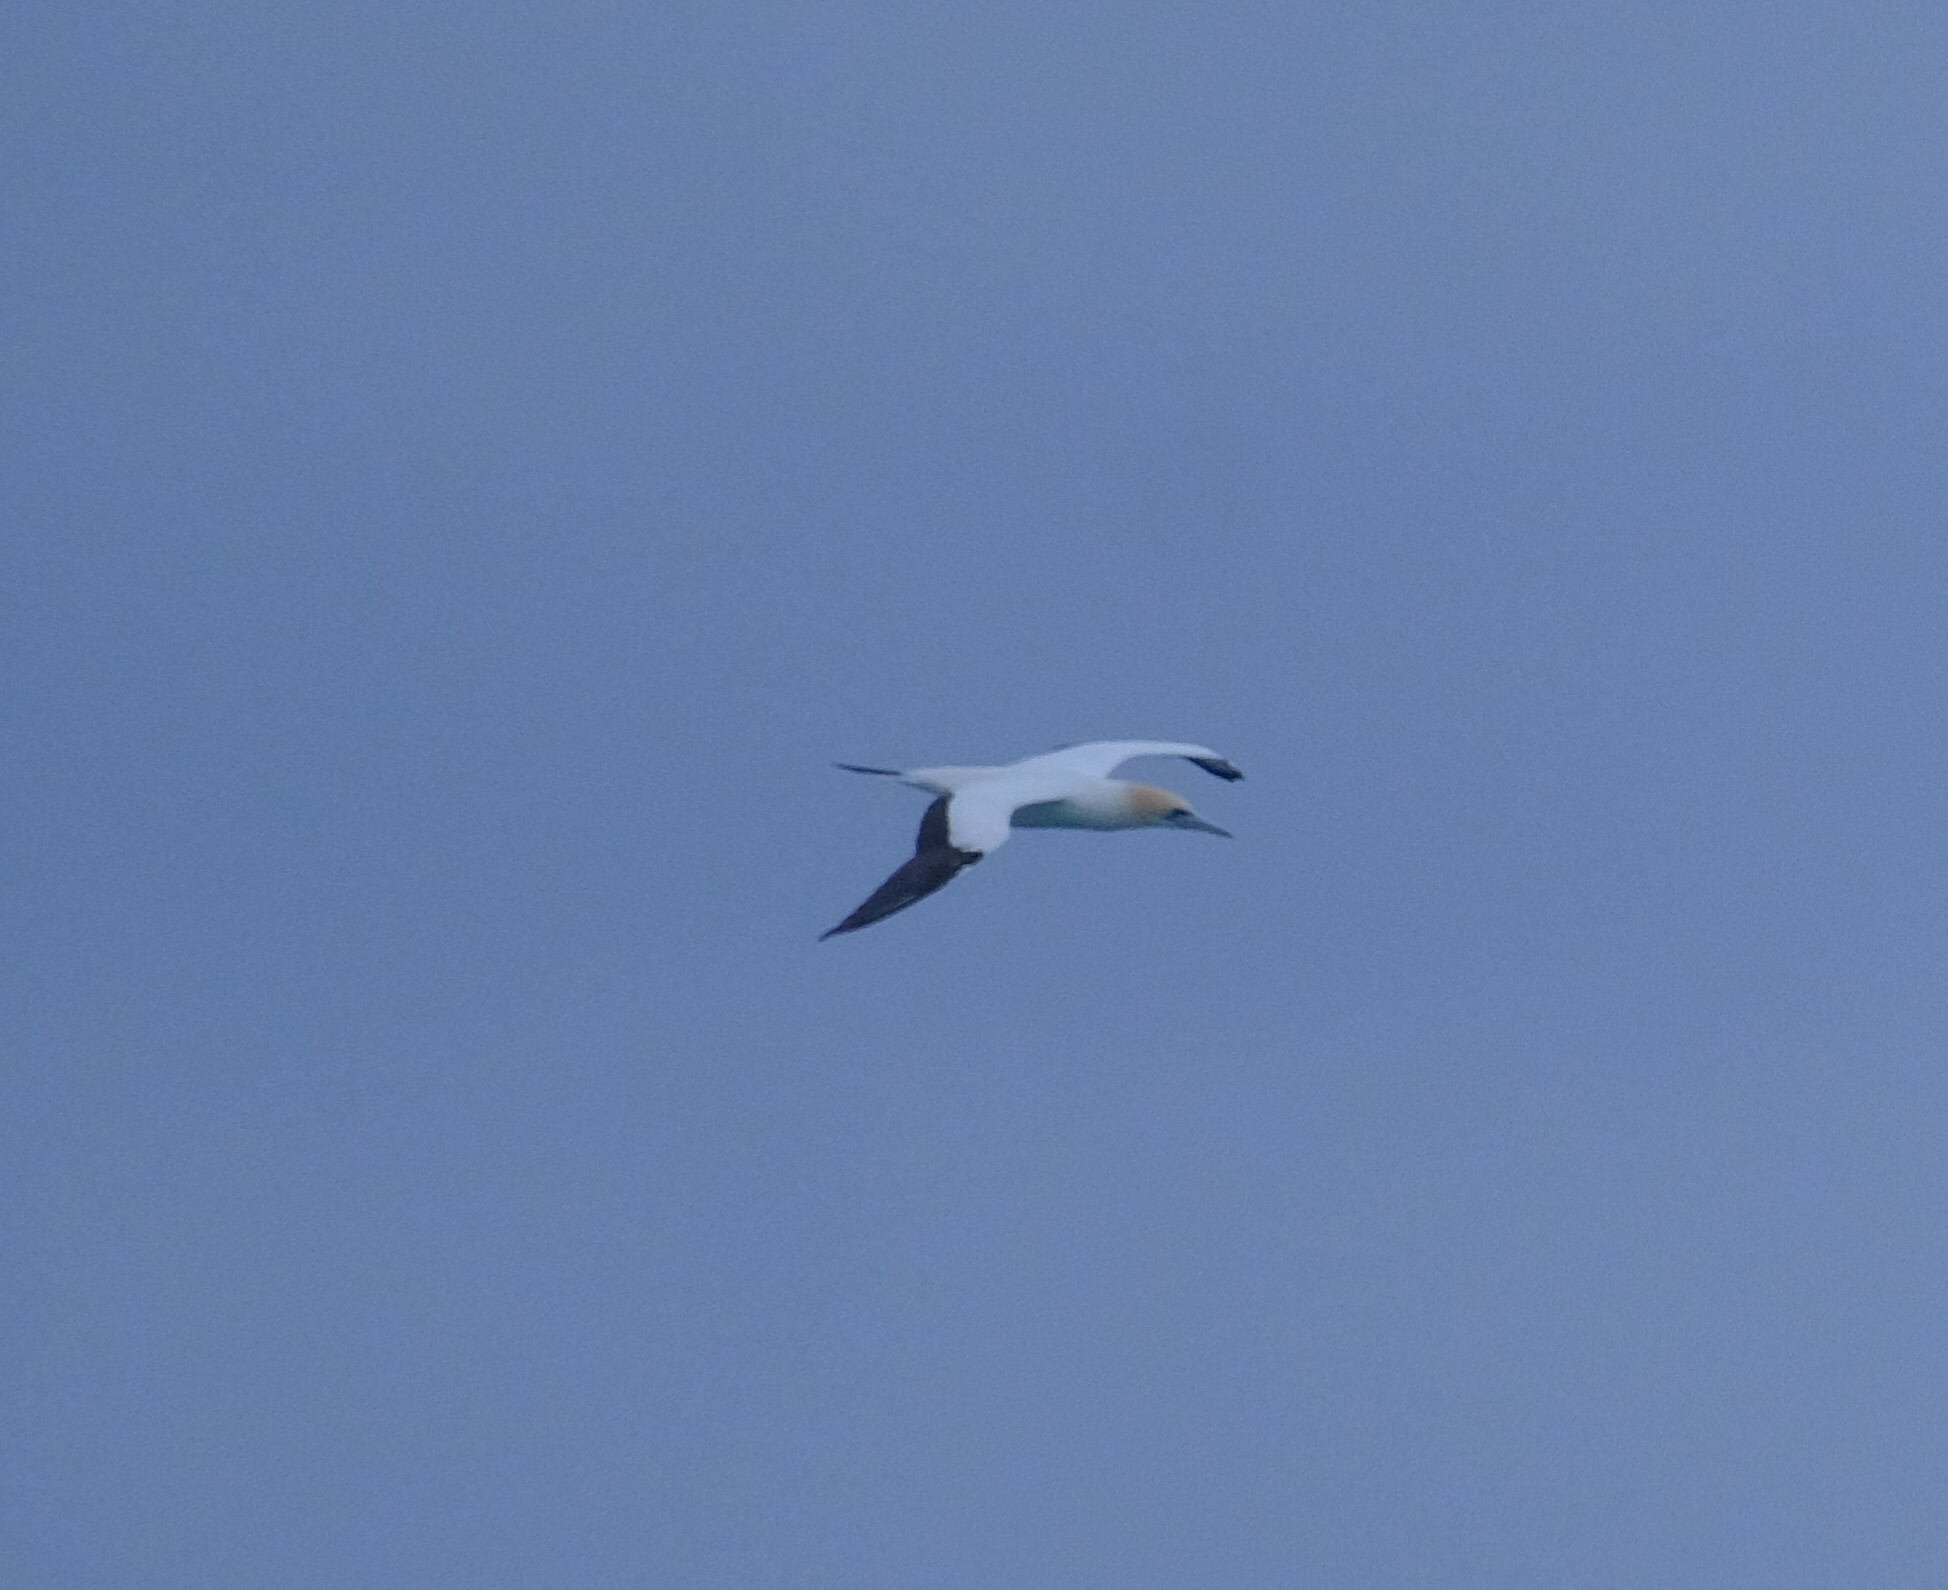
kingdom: Animalia
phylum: Chordata
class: Aves
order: Suliformes
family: Sulidae
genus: Morus
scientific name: Morus serrator
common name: Australasian gannet
